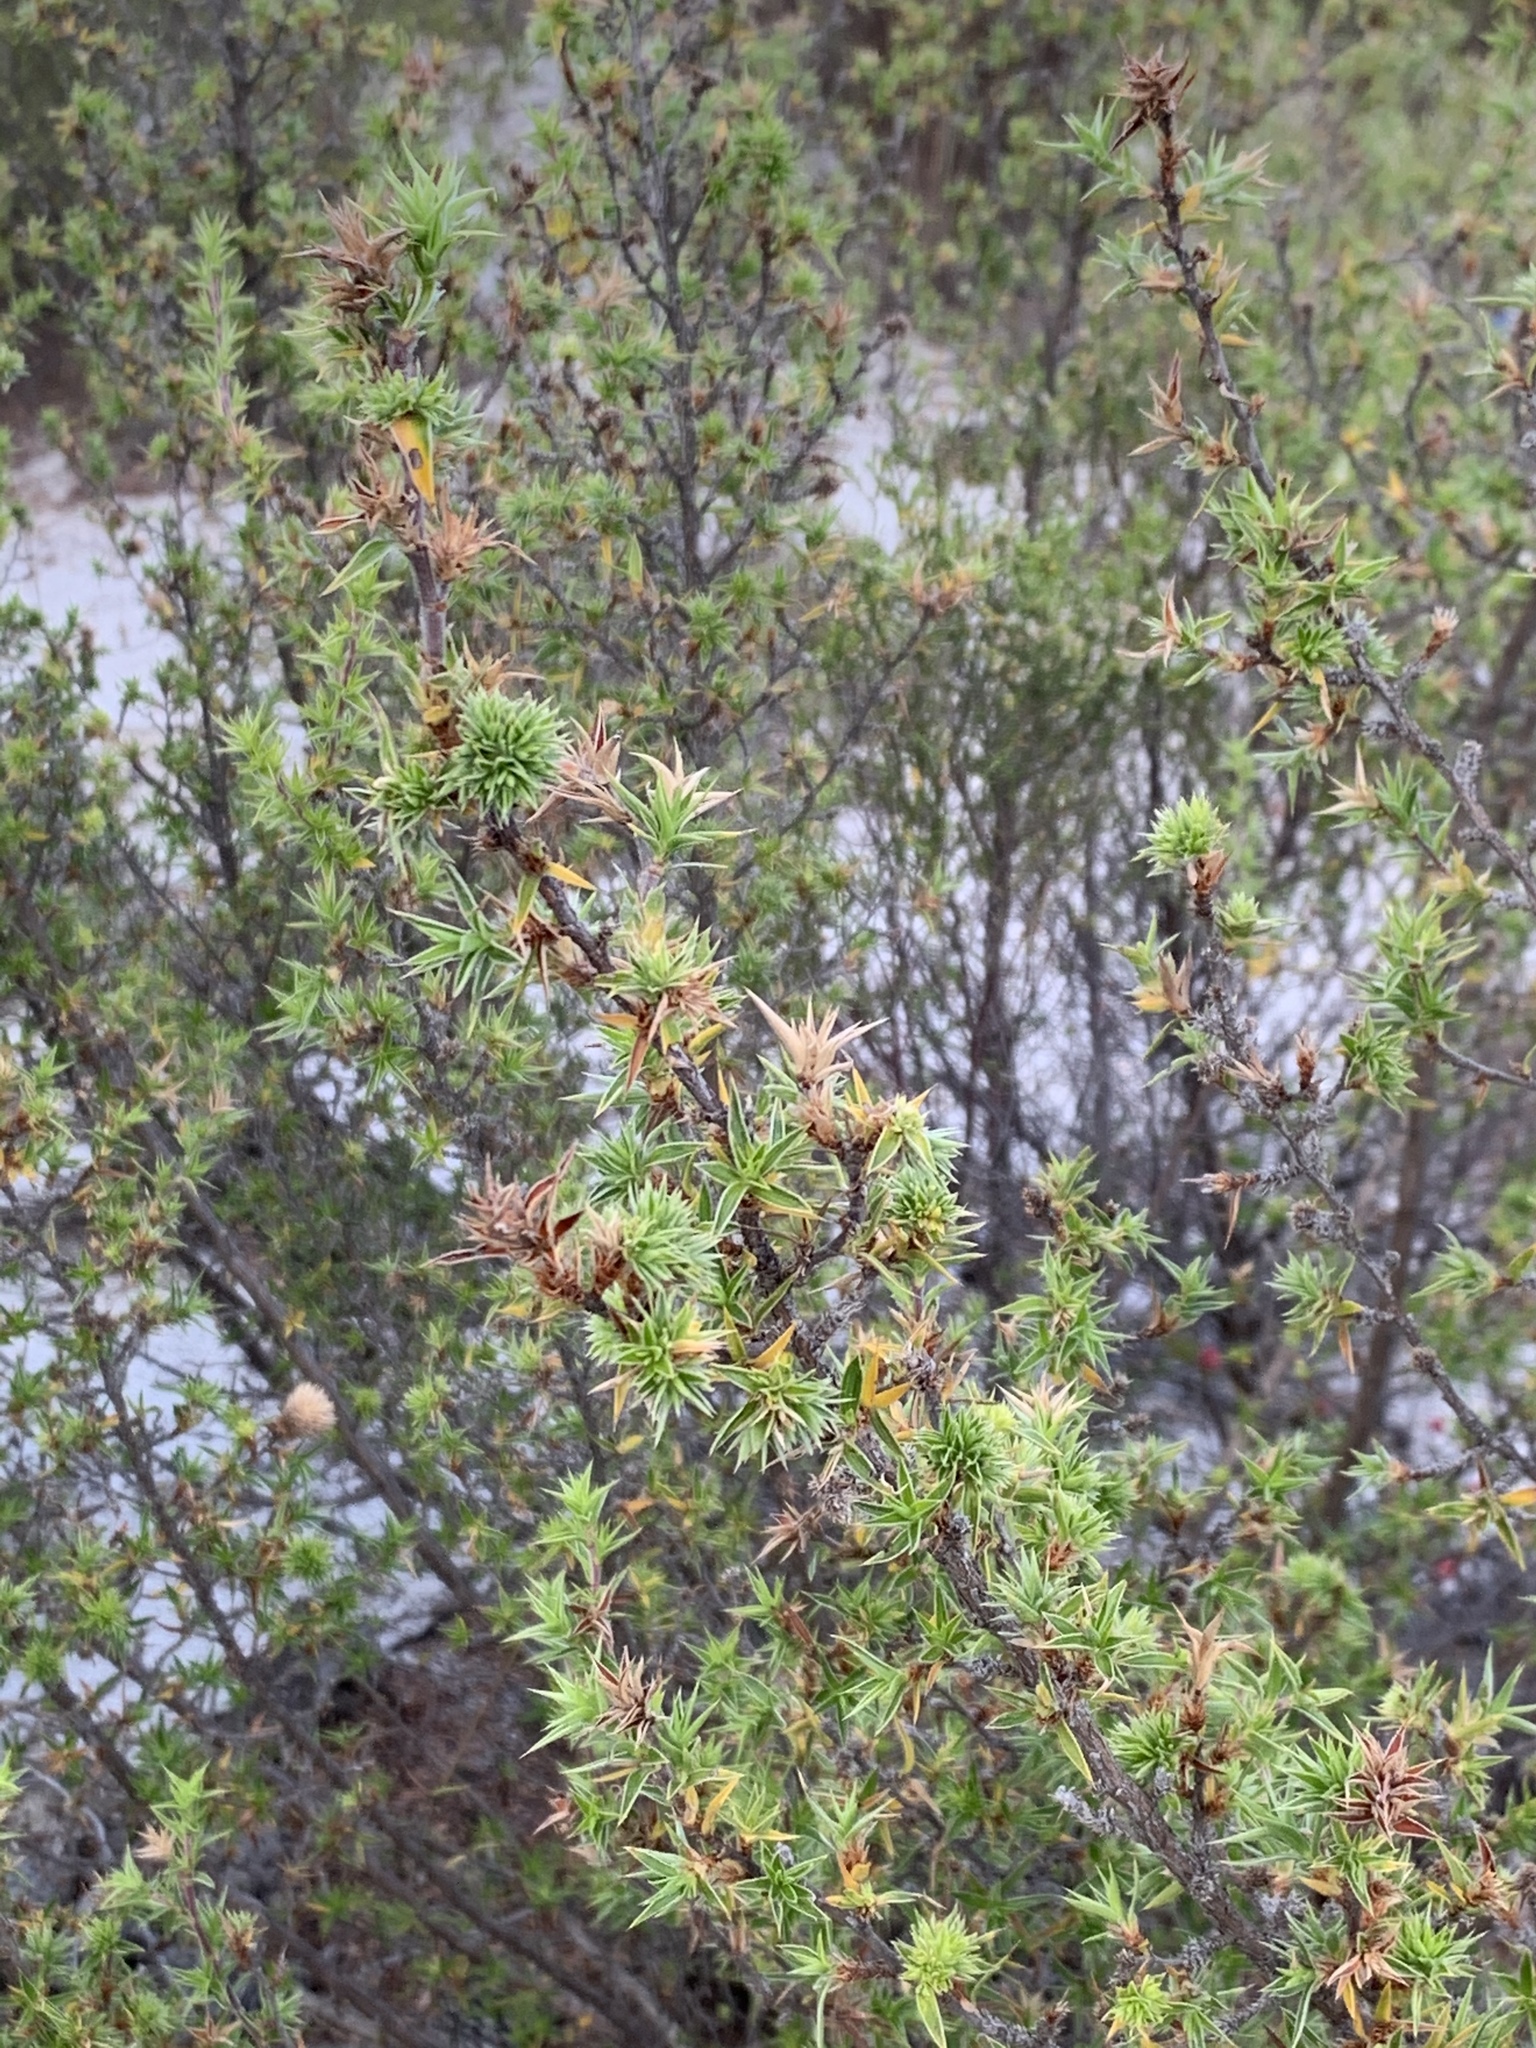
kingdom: Plantae
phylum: Tracheophyta
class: Magnoliopsida
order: Rosales
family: Rosaceae
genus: Cliffortia
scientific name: Cliffortia ruscifolia
